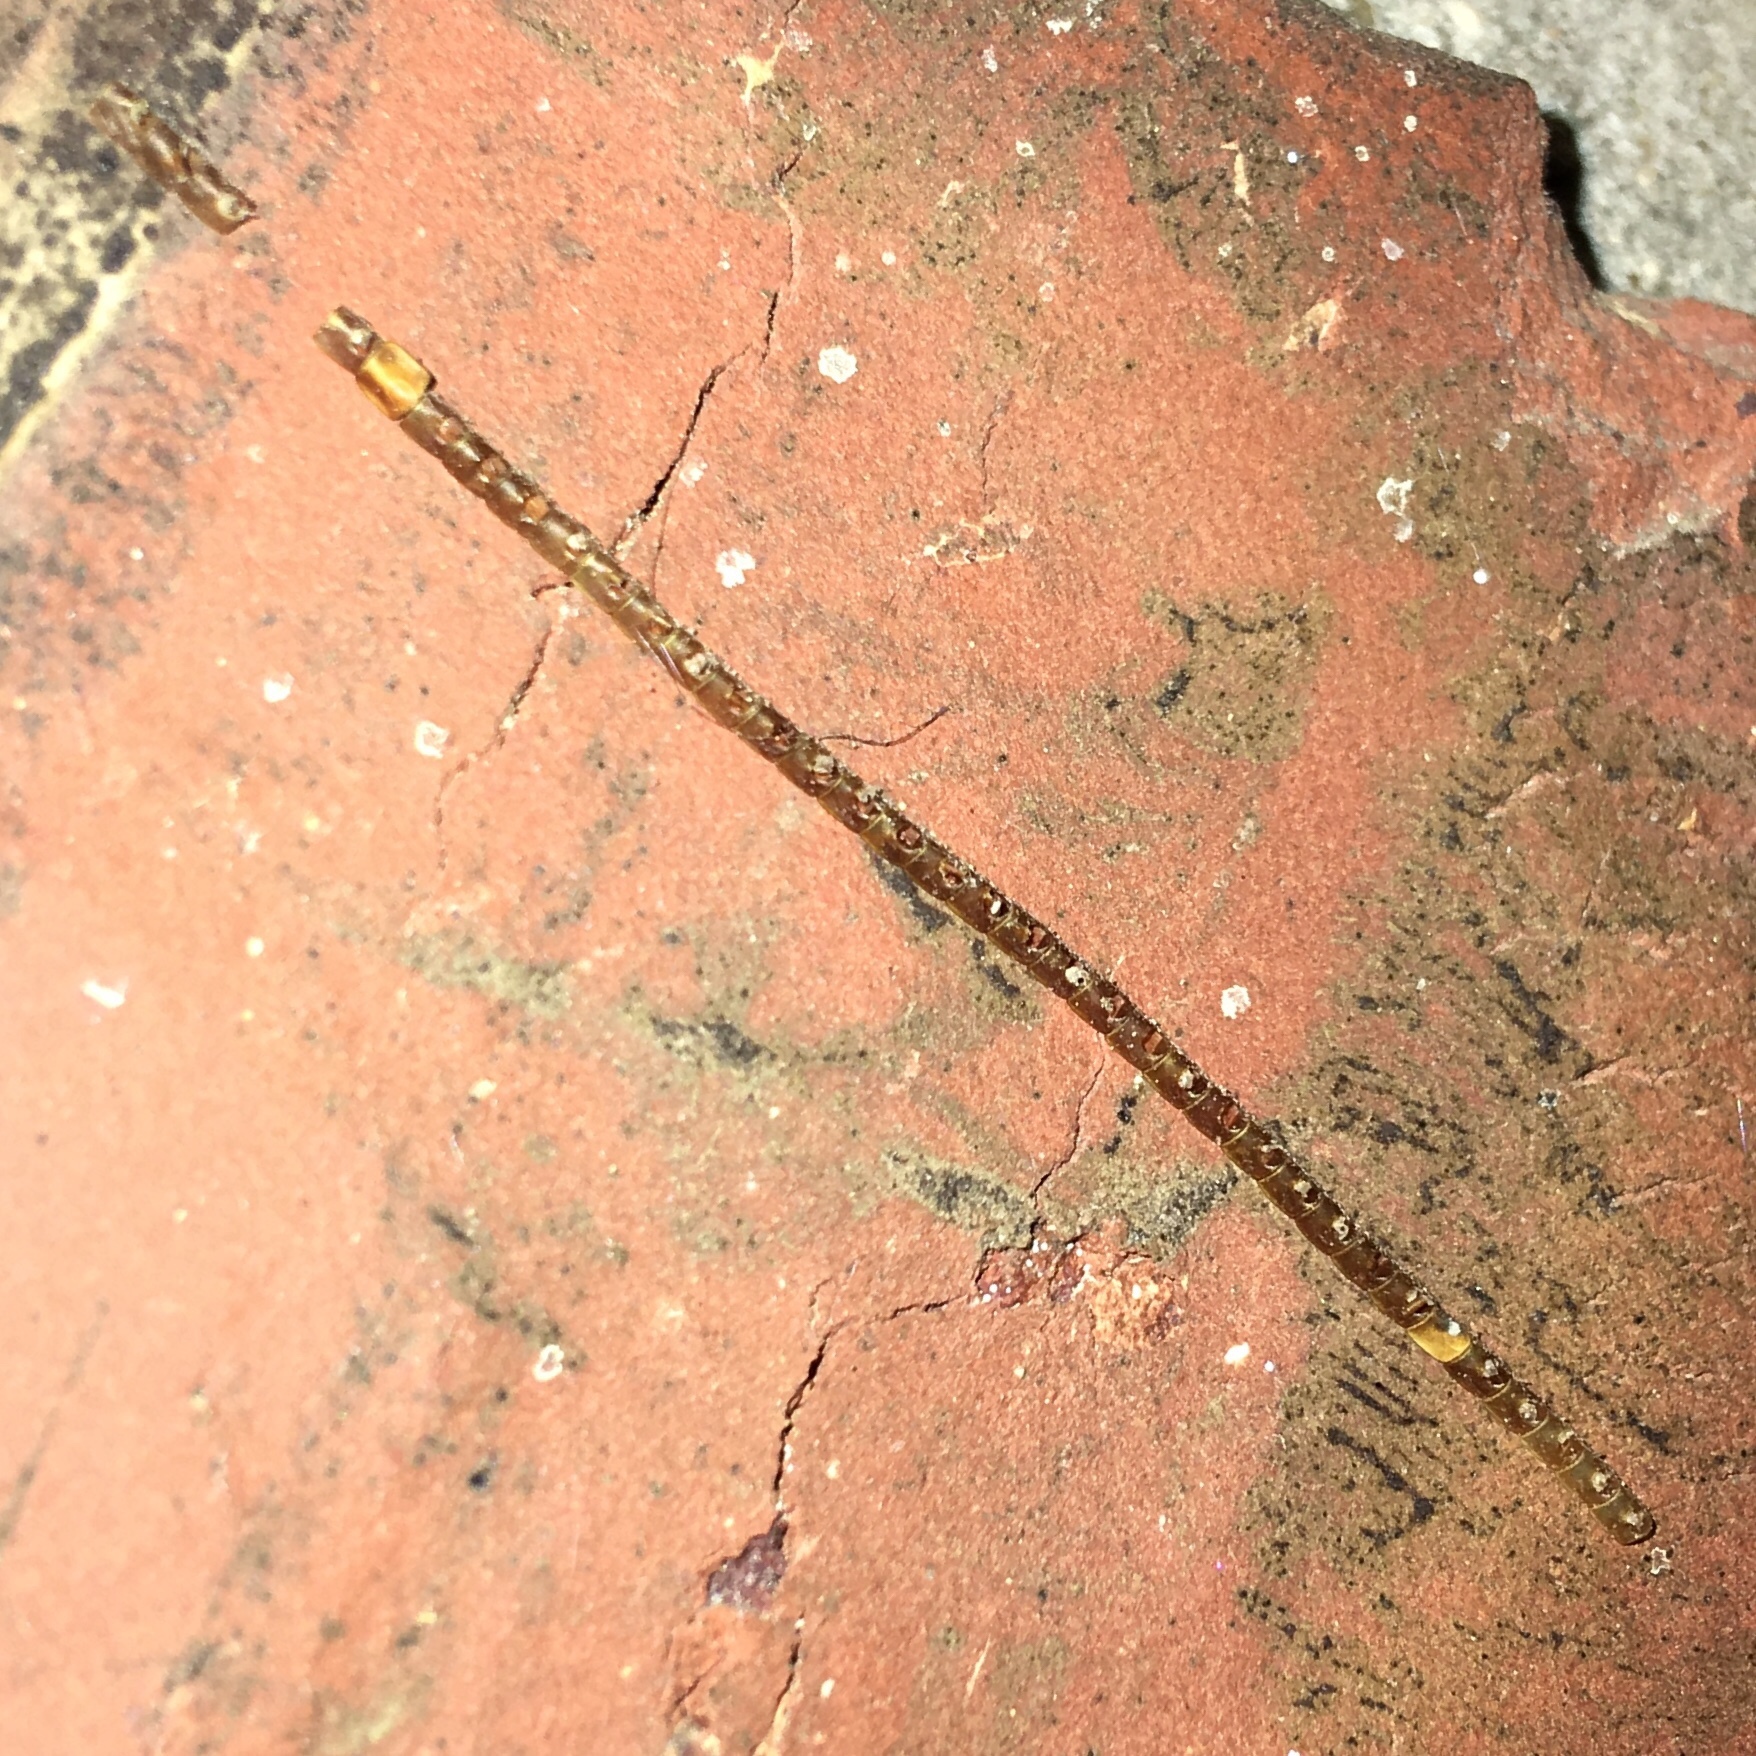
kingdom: Animalia
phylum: Arthropoda
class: Insecta
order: Hemiptera
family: Coreidae
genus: Leptoglossus
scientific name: Leptoglossus
